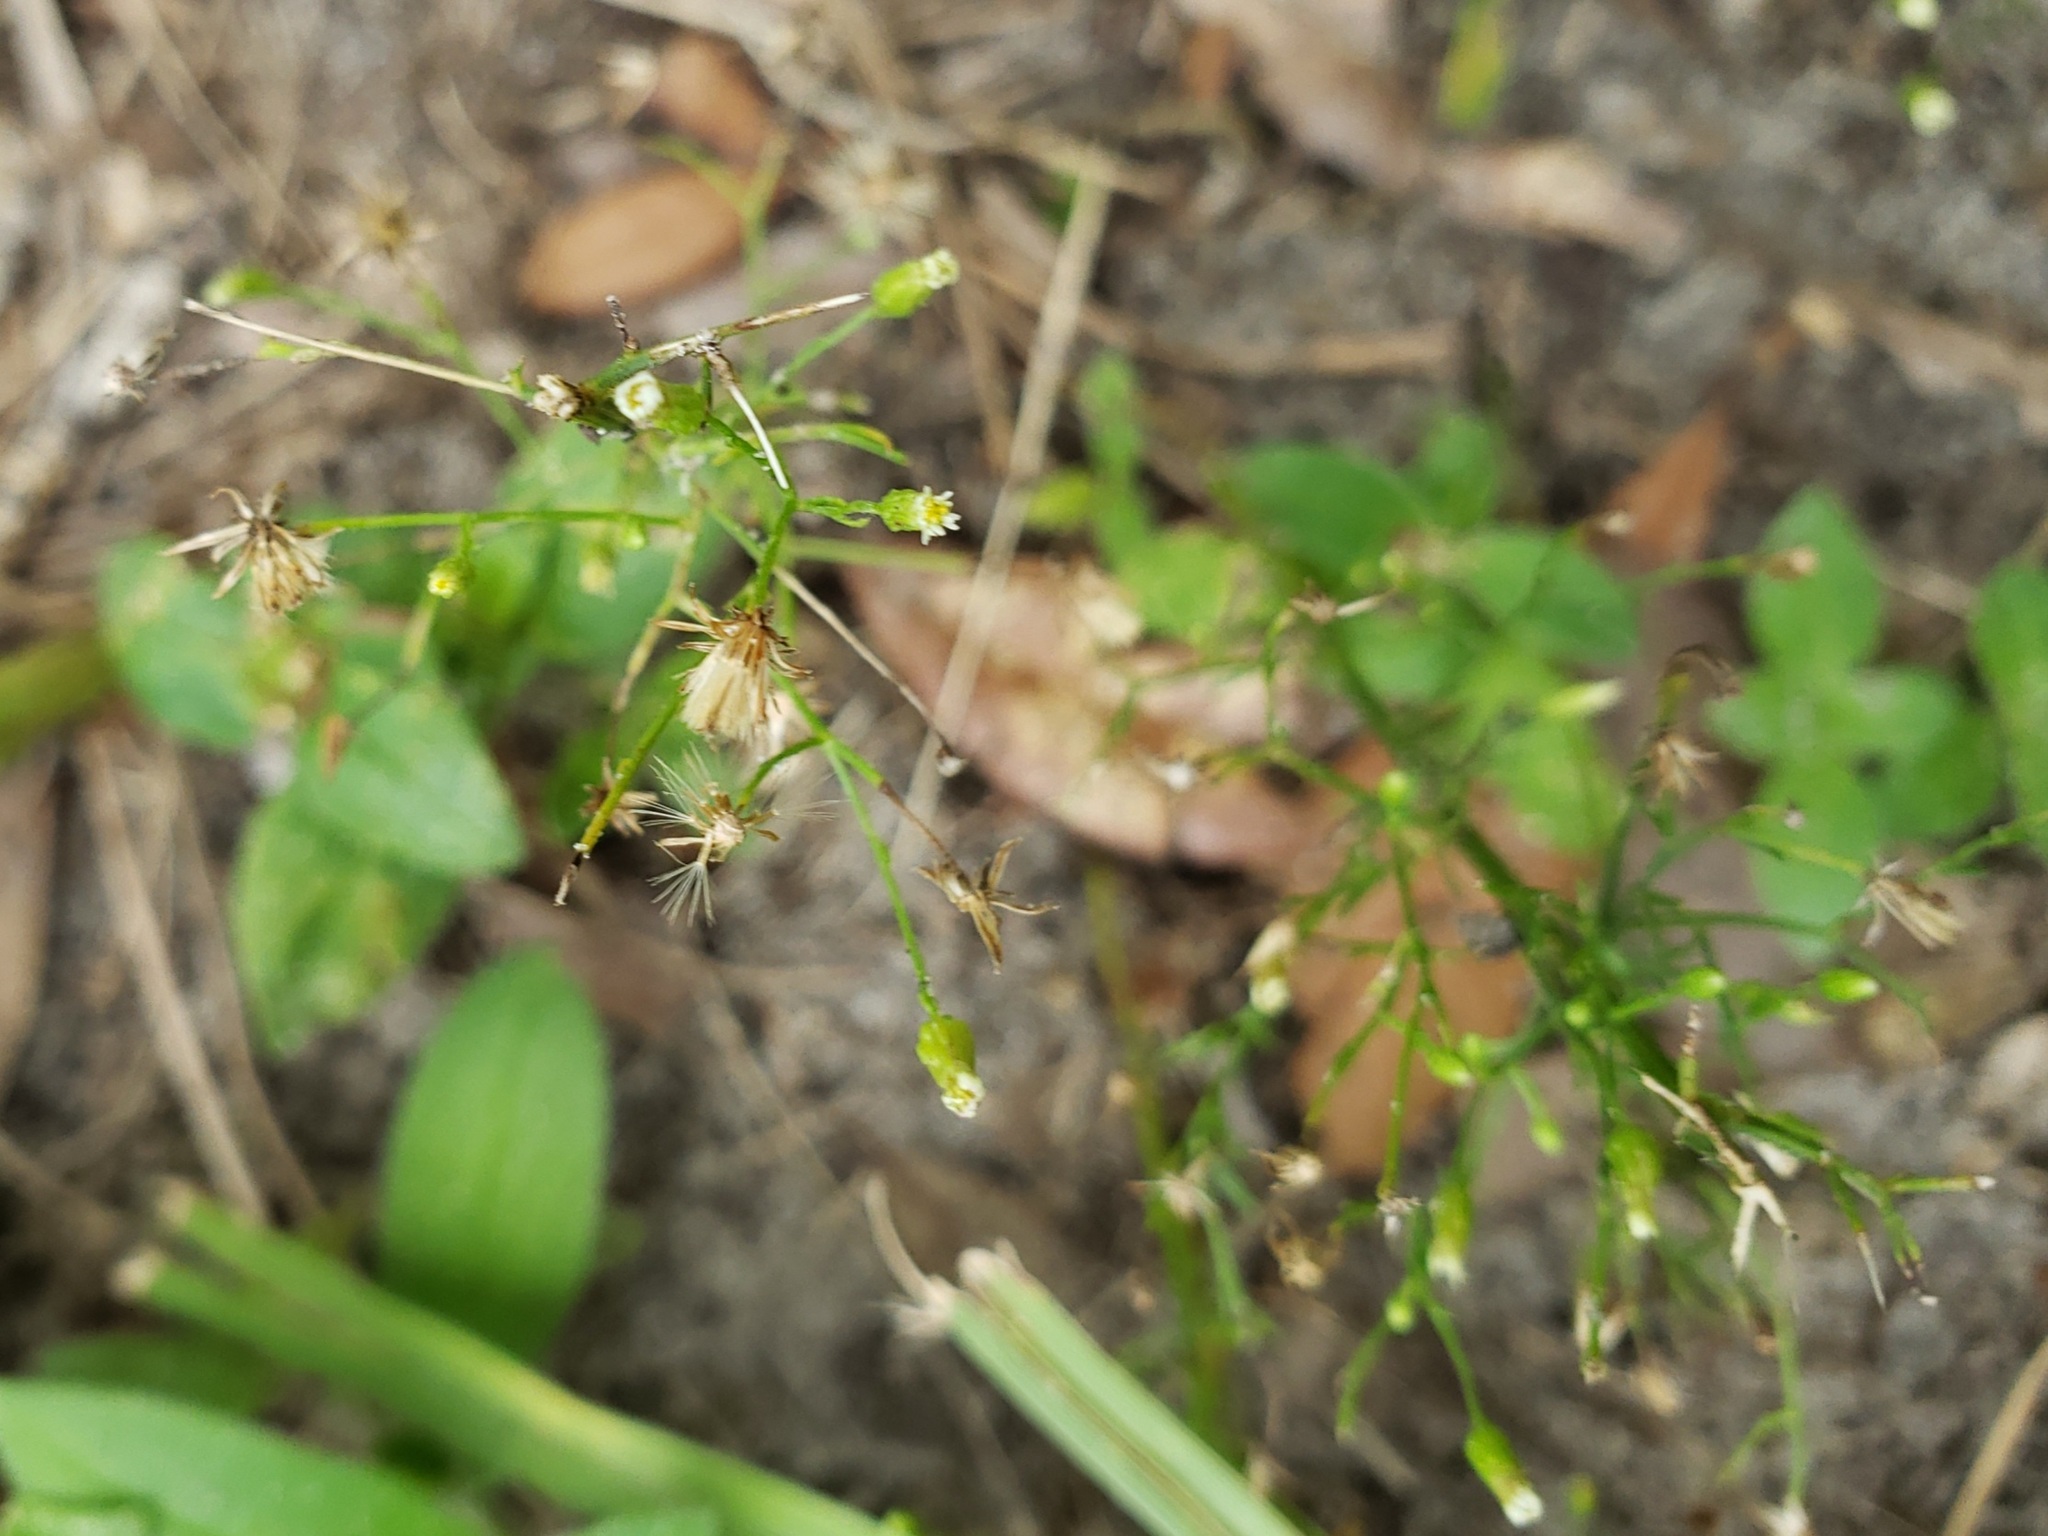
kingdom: Plantae
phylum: Tracheophyta
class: Magnoliopsida
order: Asterales
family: Asteraceae
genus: Erigeron
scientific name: Erigeron canadensis
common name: Canadian fleabane
